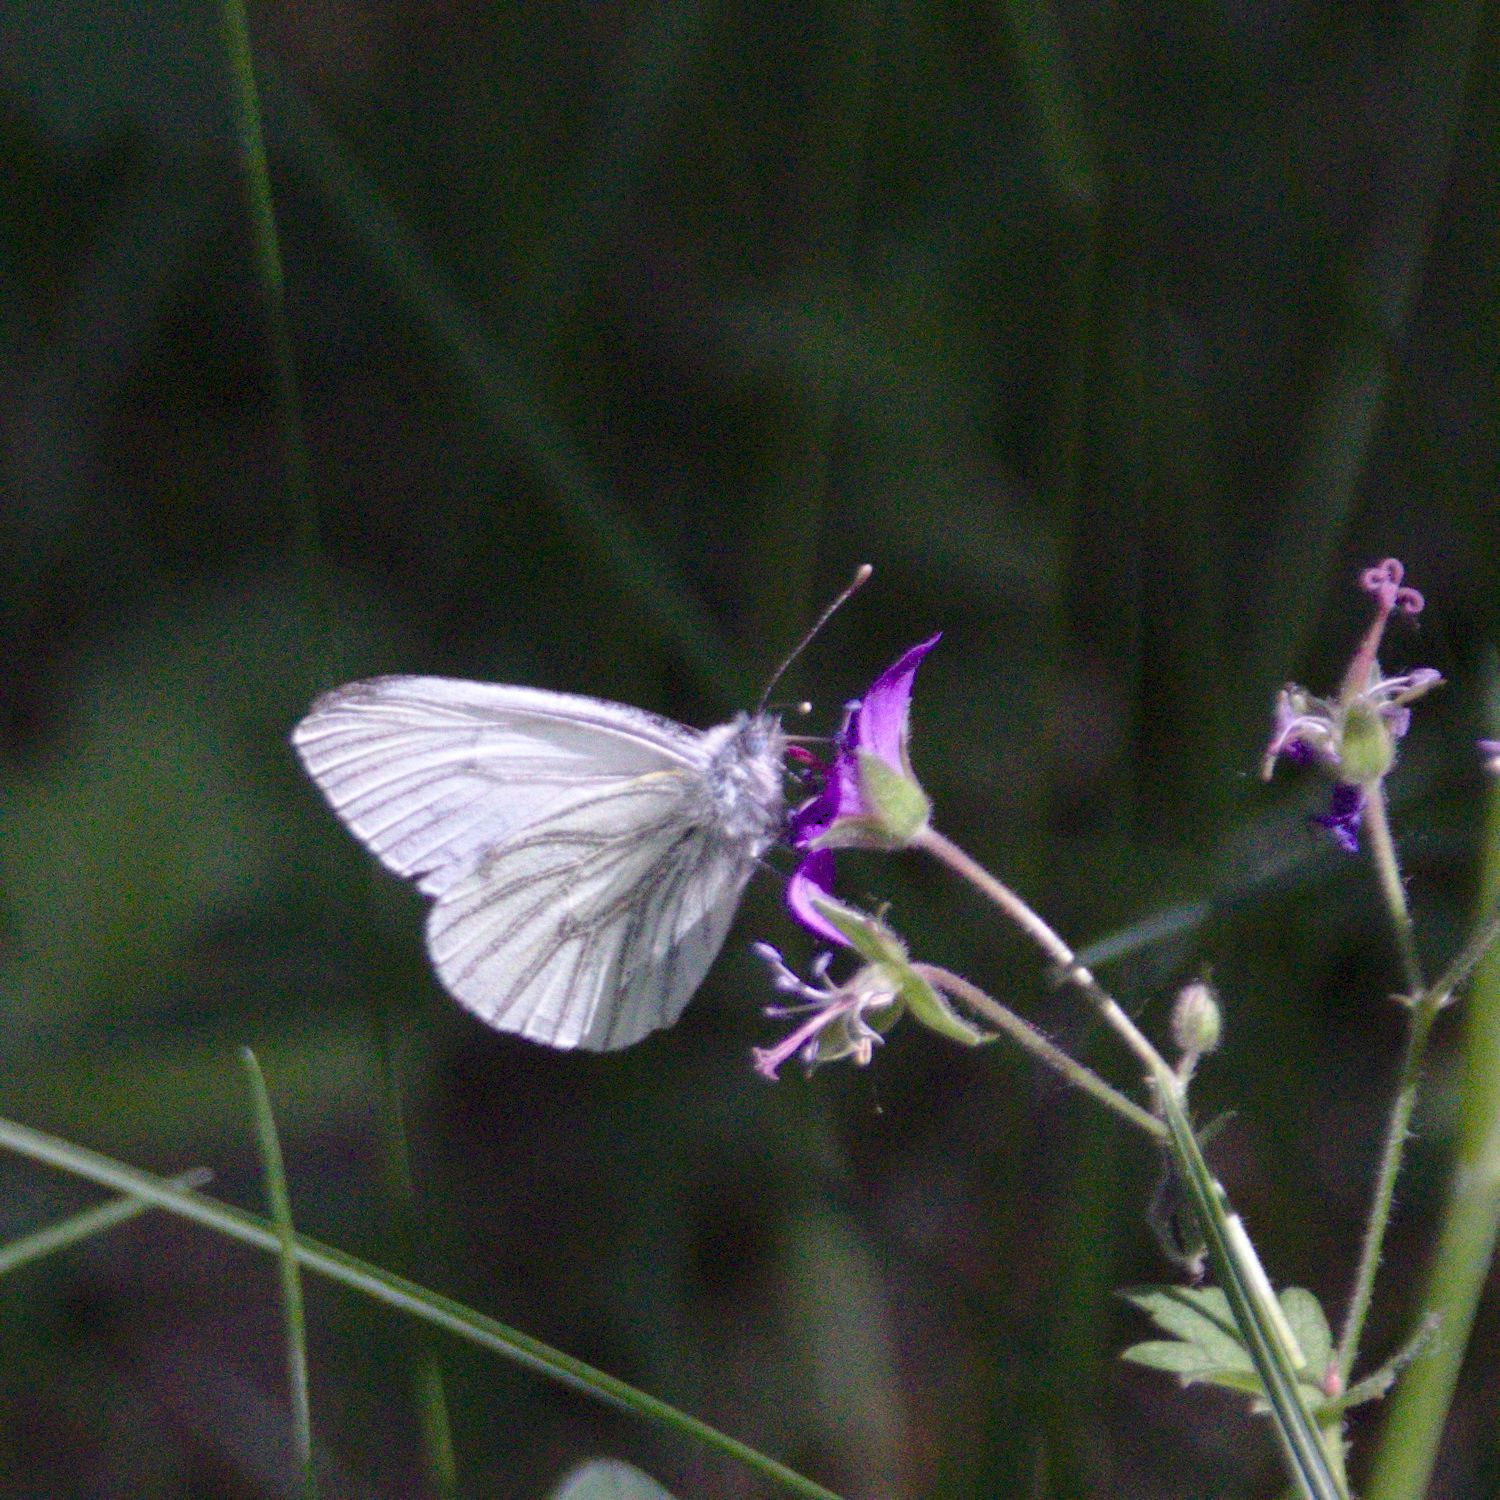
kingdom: Animalia
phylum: Arthropoda
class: Insecta
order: Lepidoptera
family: Pieridae
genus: Pieris
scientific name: Pieris napi
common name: Green-veined white
